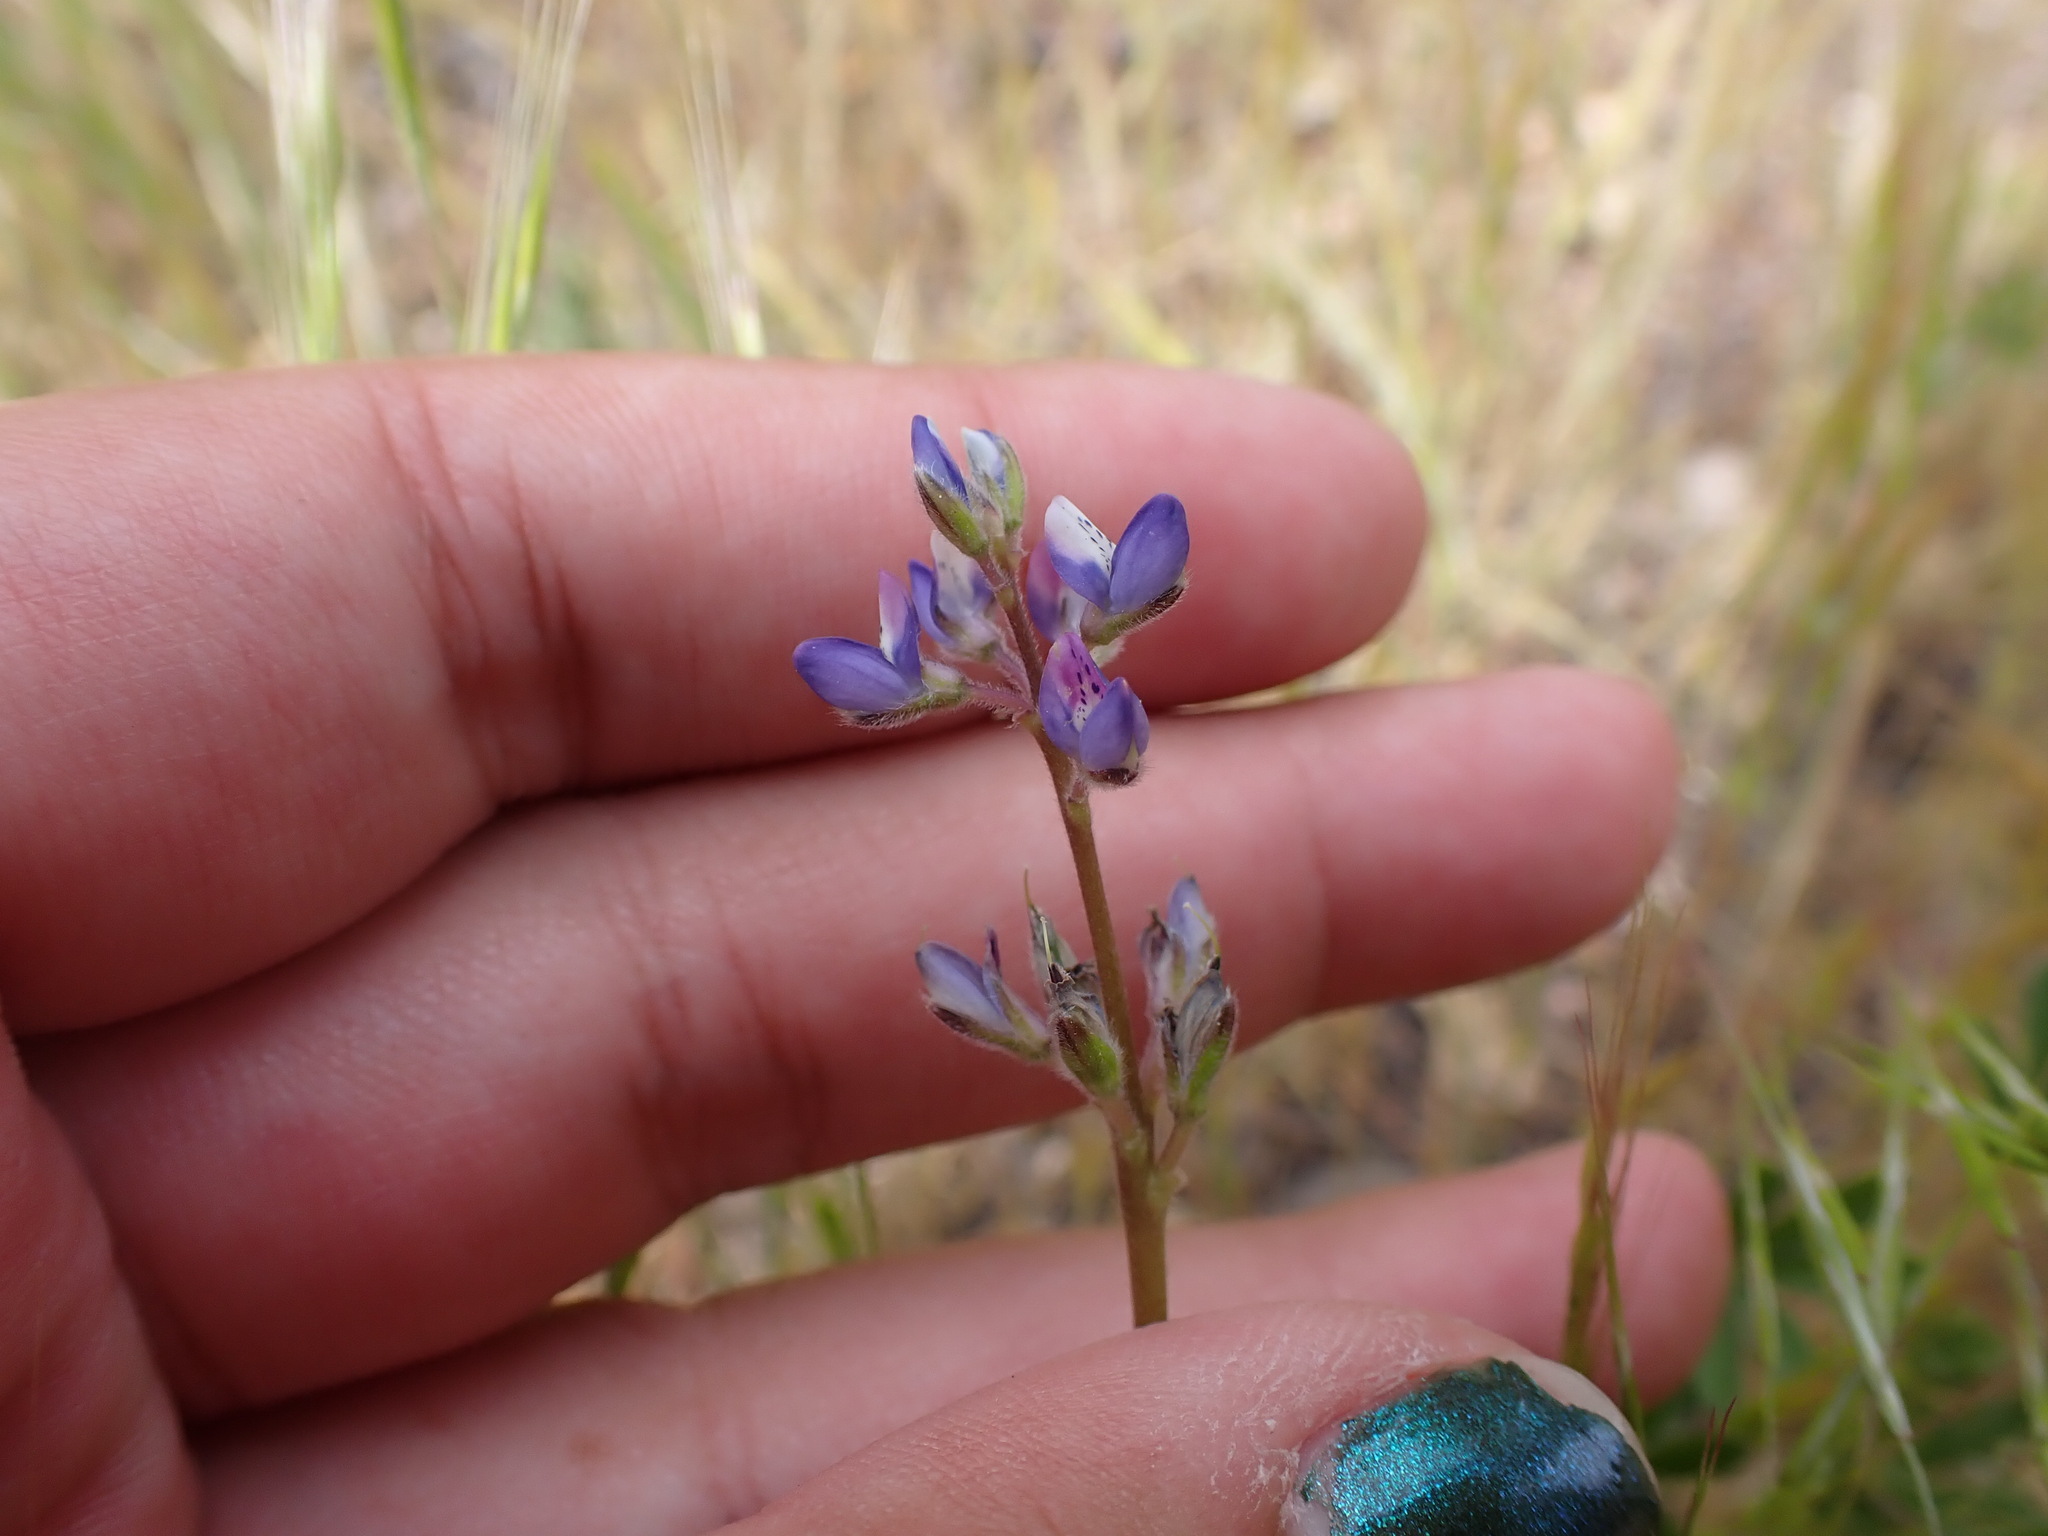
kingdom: Plantae
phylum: Tracheophyta
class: Magnoliopsida
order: Fabales
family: Fabaceae
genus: Lupinus
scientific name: Lupinus bicolor
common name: Miniature lupine
